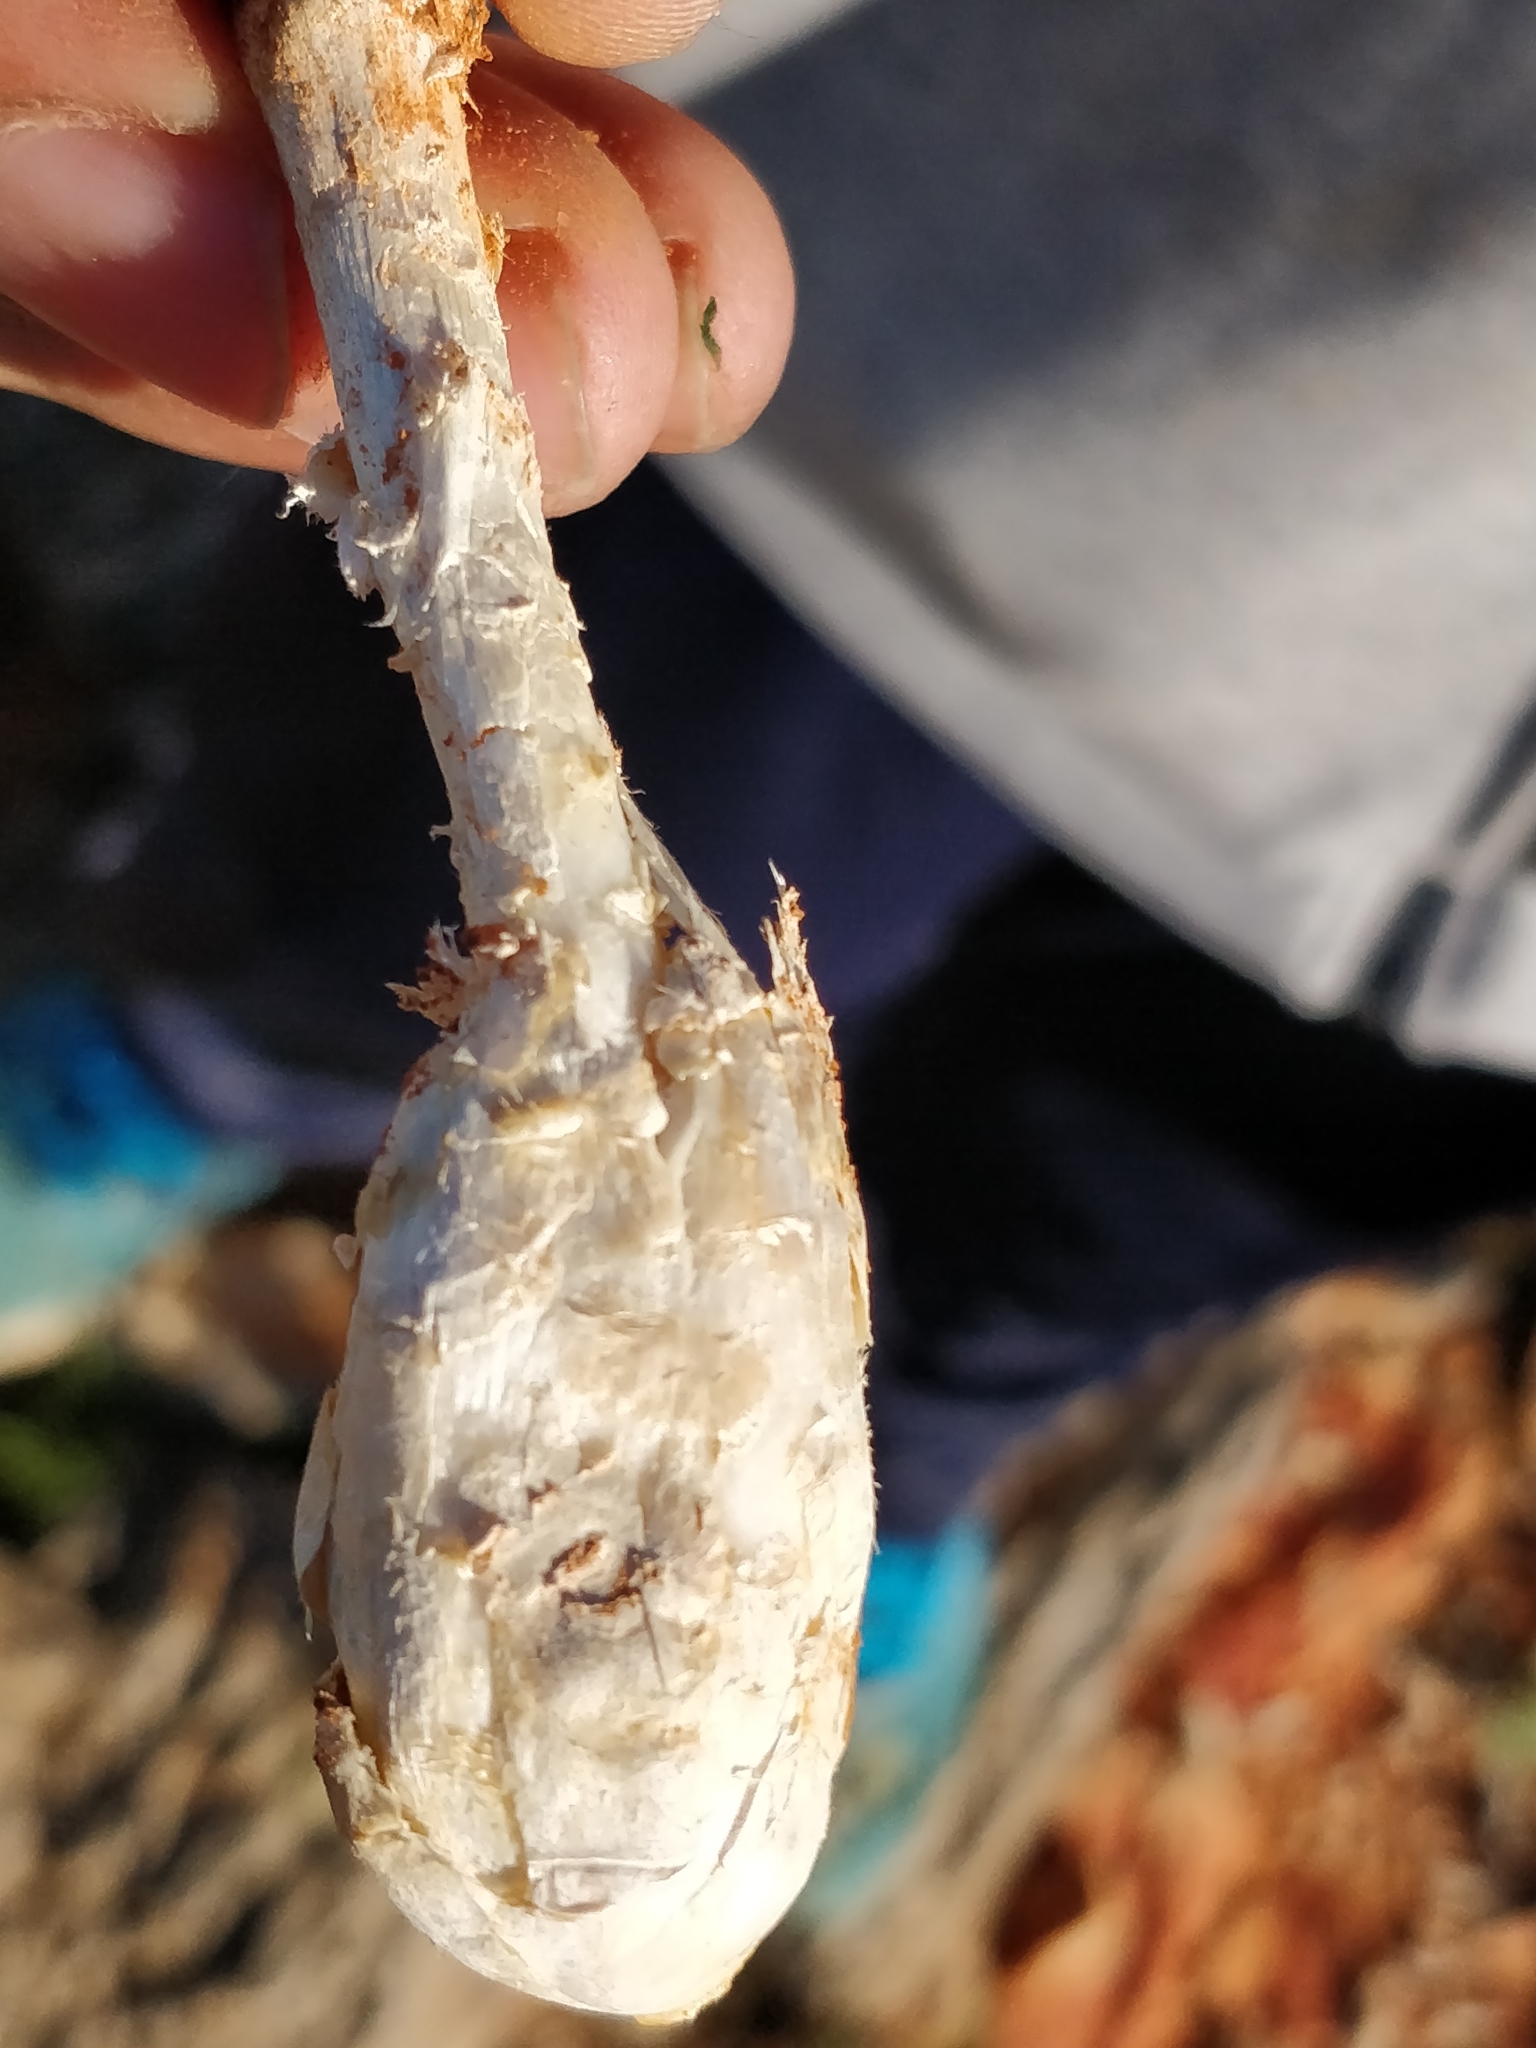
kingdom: Fungi
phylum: Basidiomycota
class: Agaricomycetes
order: Agaricales
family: Agaricaceae
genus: Podaxis
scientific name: Podaxis pistillaris
